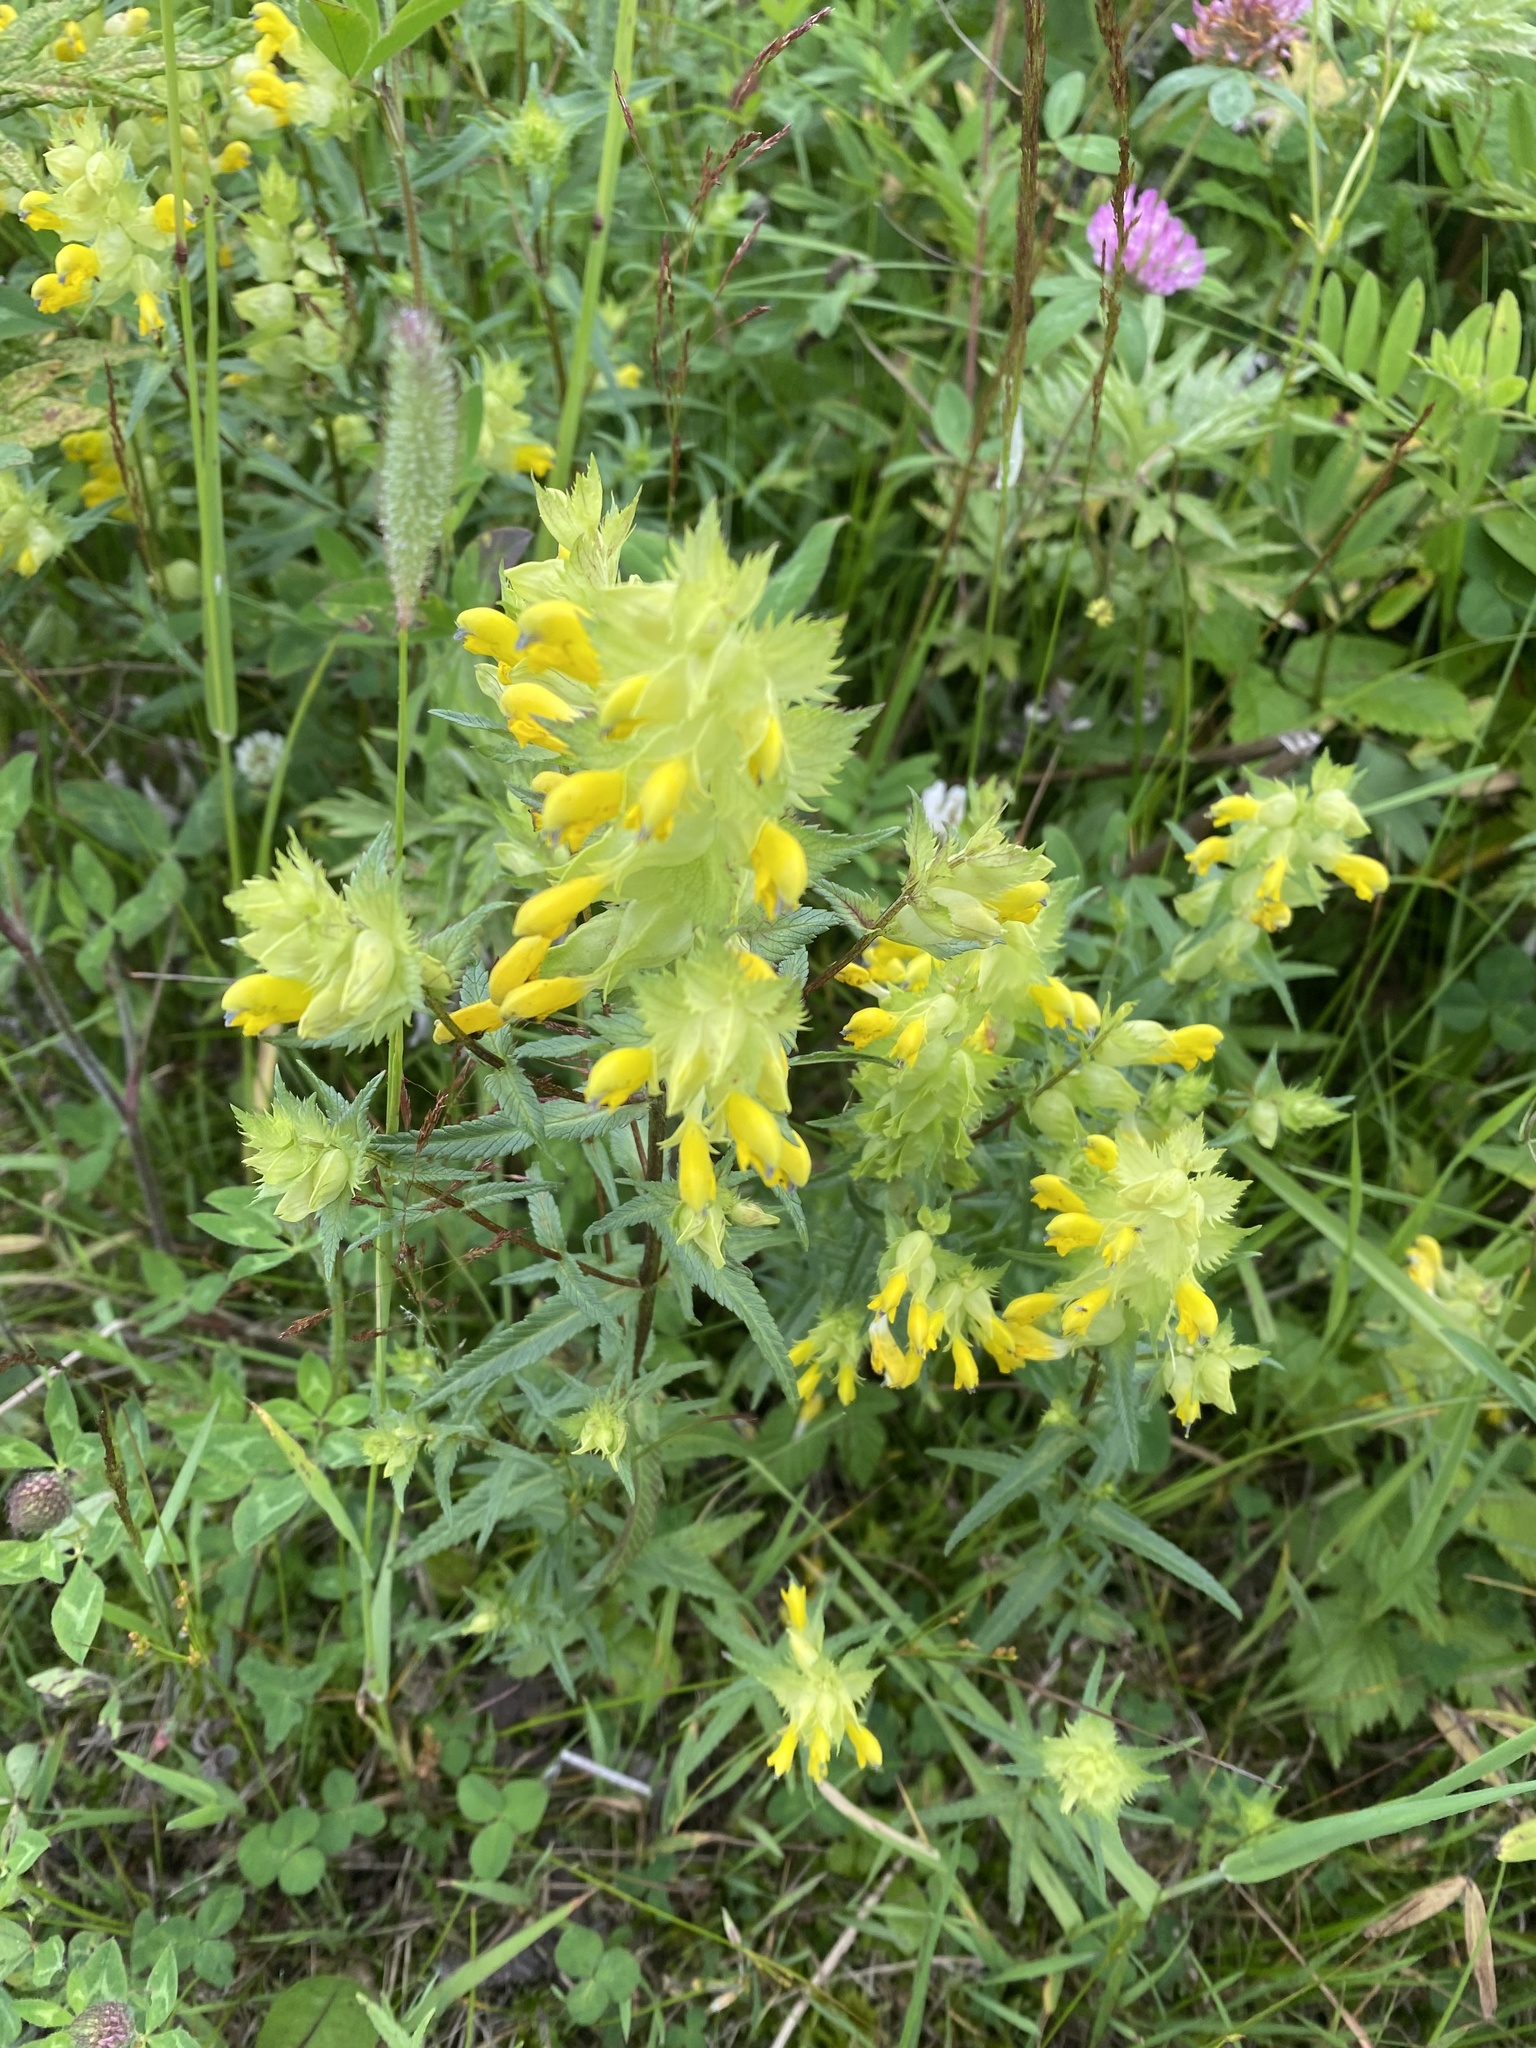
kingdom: Plantae
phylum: Tracheophyta
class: Magnoliopsida
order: Lamiales
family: Orobanchaceae
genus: Rhinanthus
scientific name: Rhinanthus serotinus
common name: Late-flowering yellow rattle
